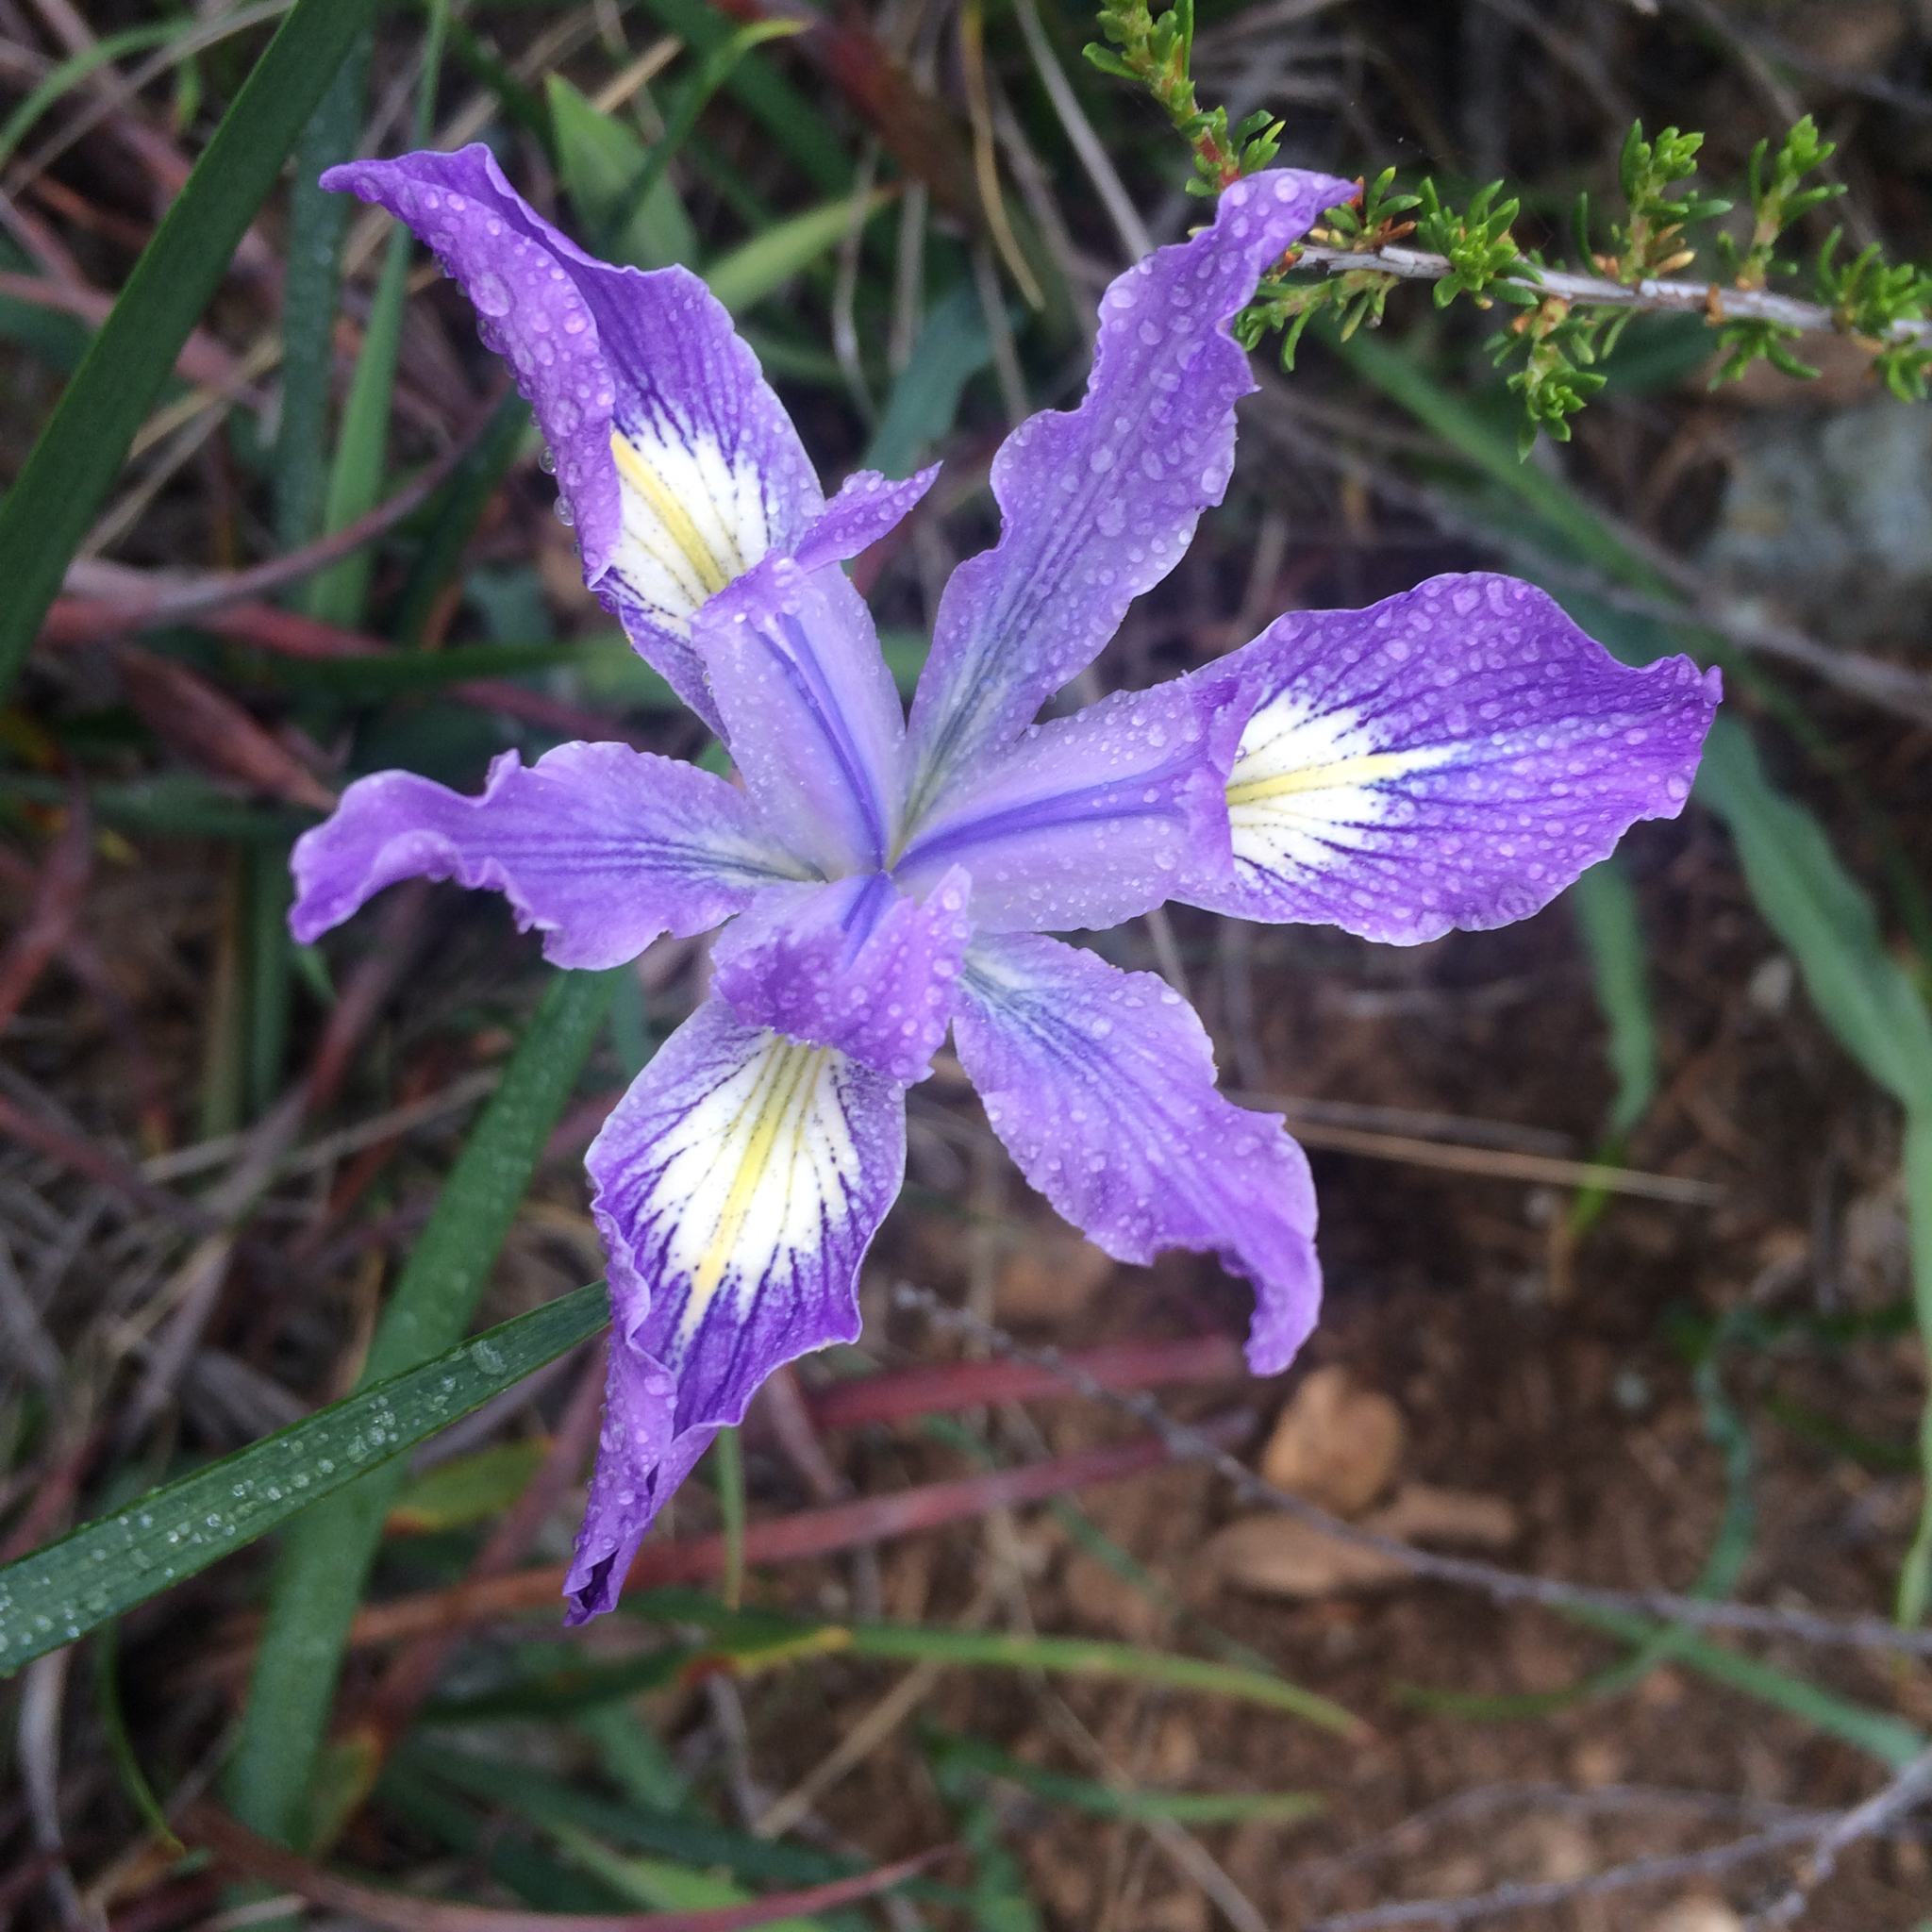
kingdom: Plantae
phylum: Tracheophyta
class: Liliopsida
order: Asparagales
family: Iridaceae
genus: Iris
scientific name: Iris douglasiana
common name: Marin iris
